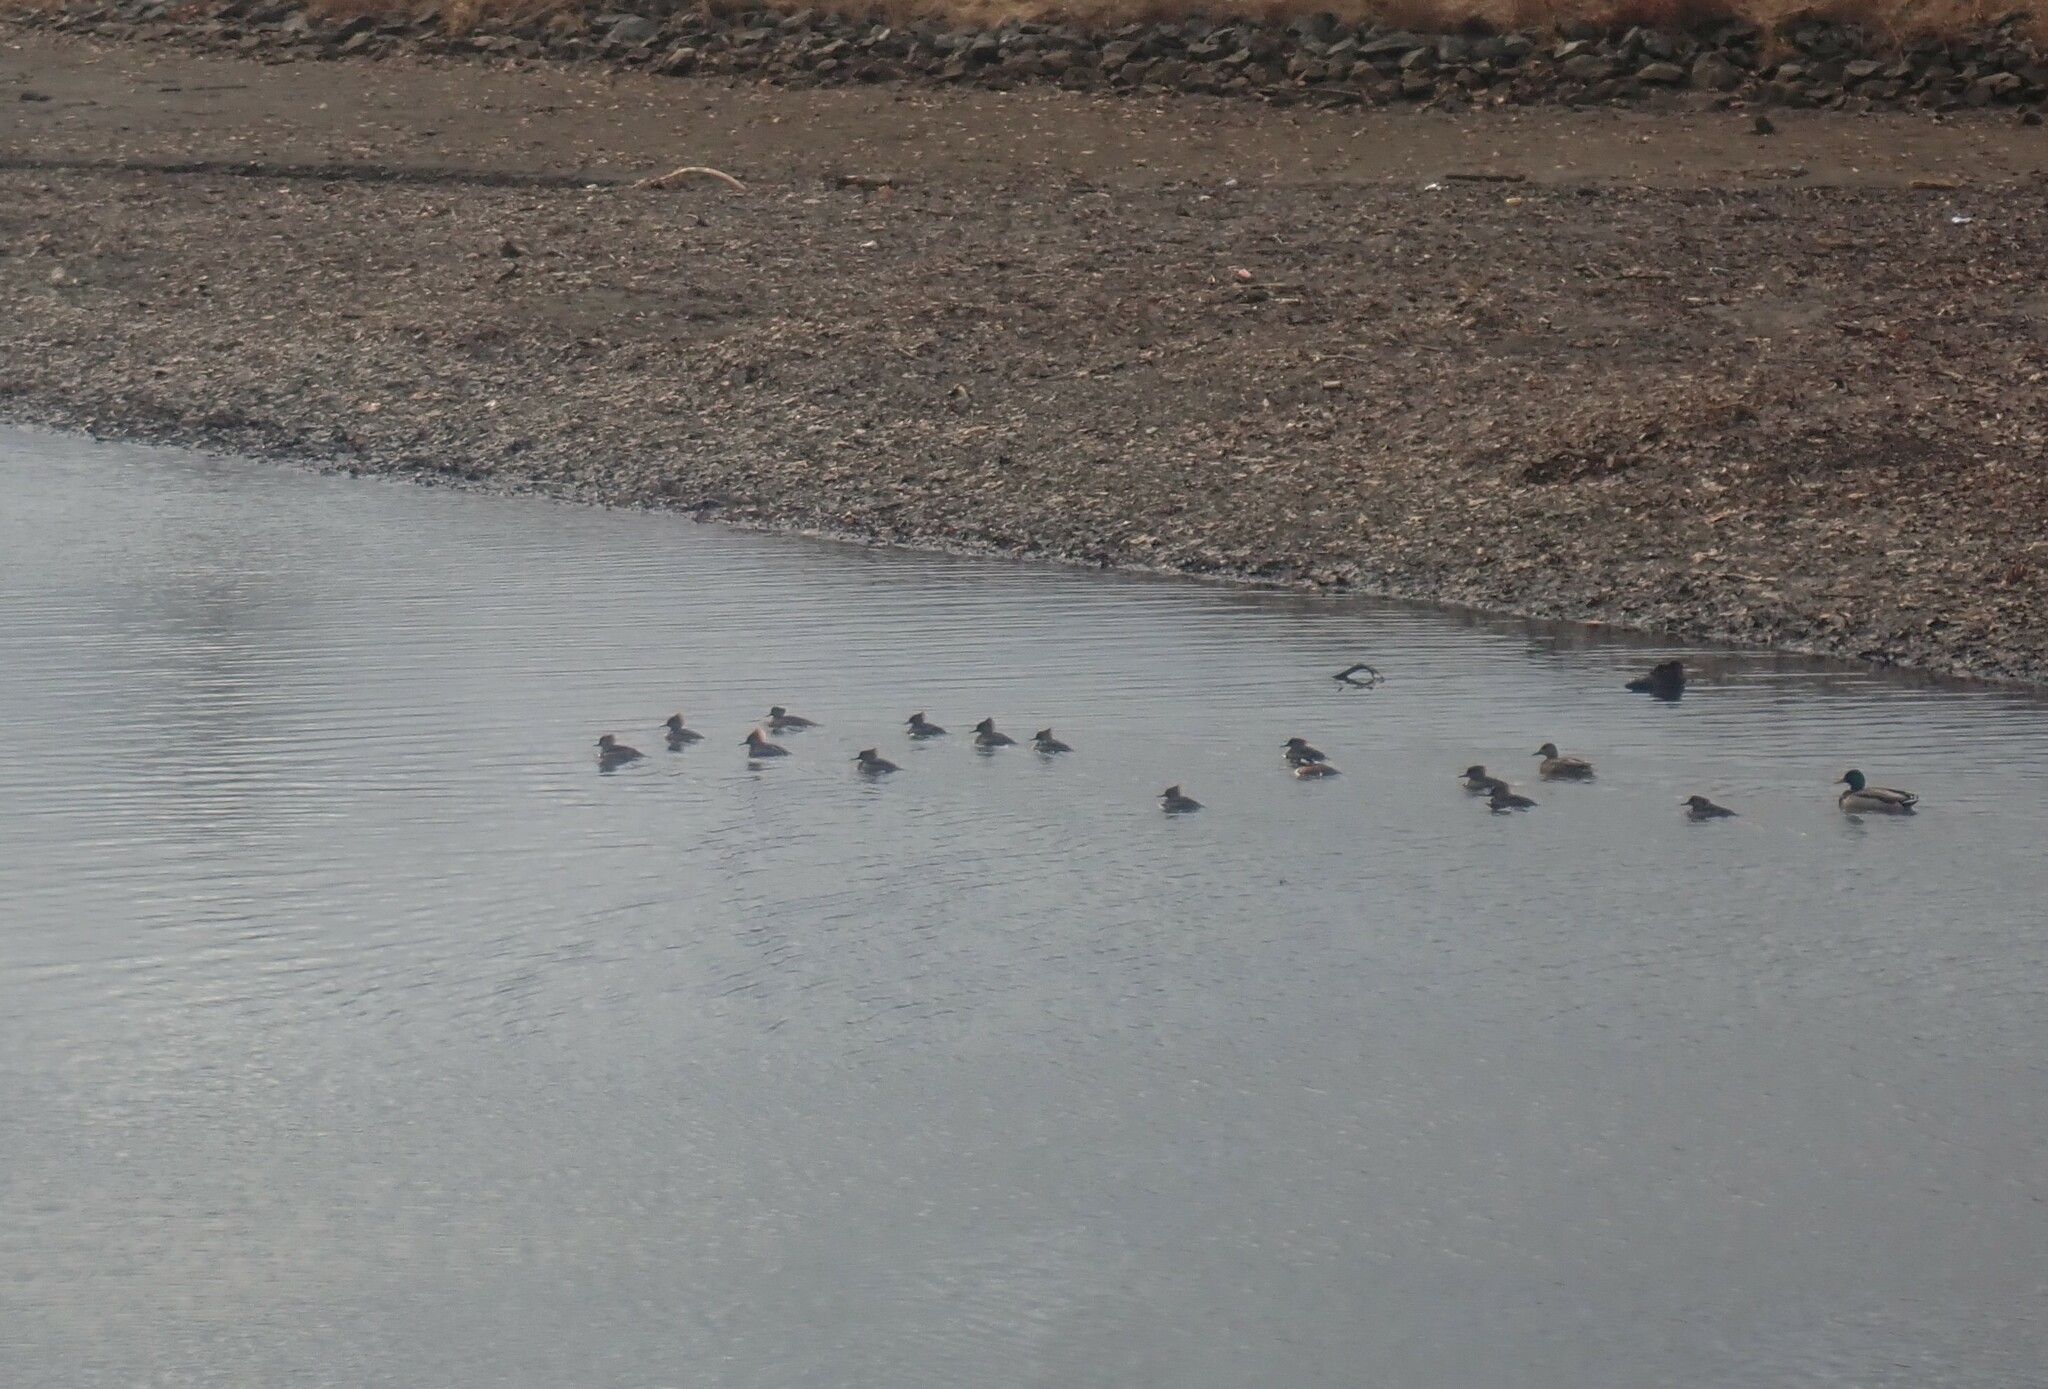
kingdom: Animalia
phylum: Chordata
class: Aves
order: Anseriformes
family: Anatidae
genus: Lophodytes
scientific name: Lophodytes cucullatus
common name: Hooded merganser
